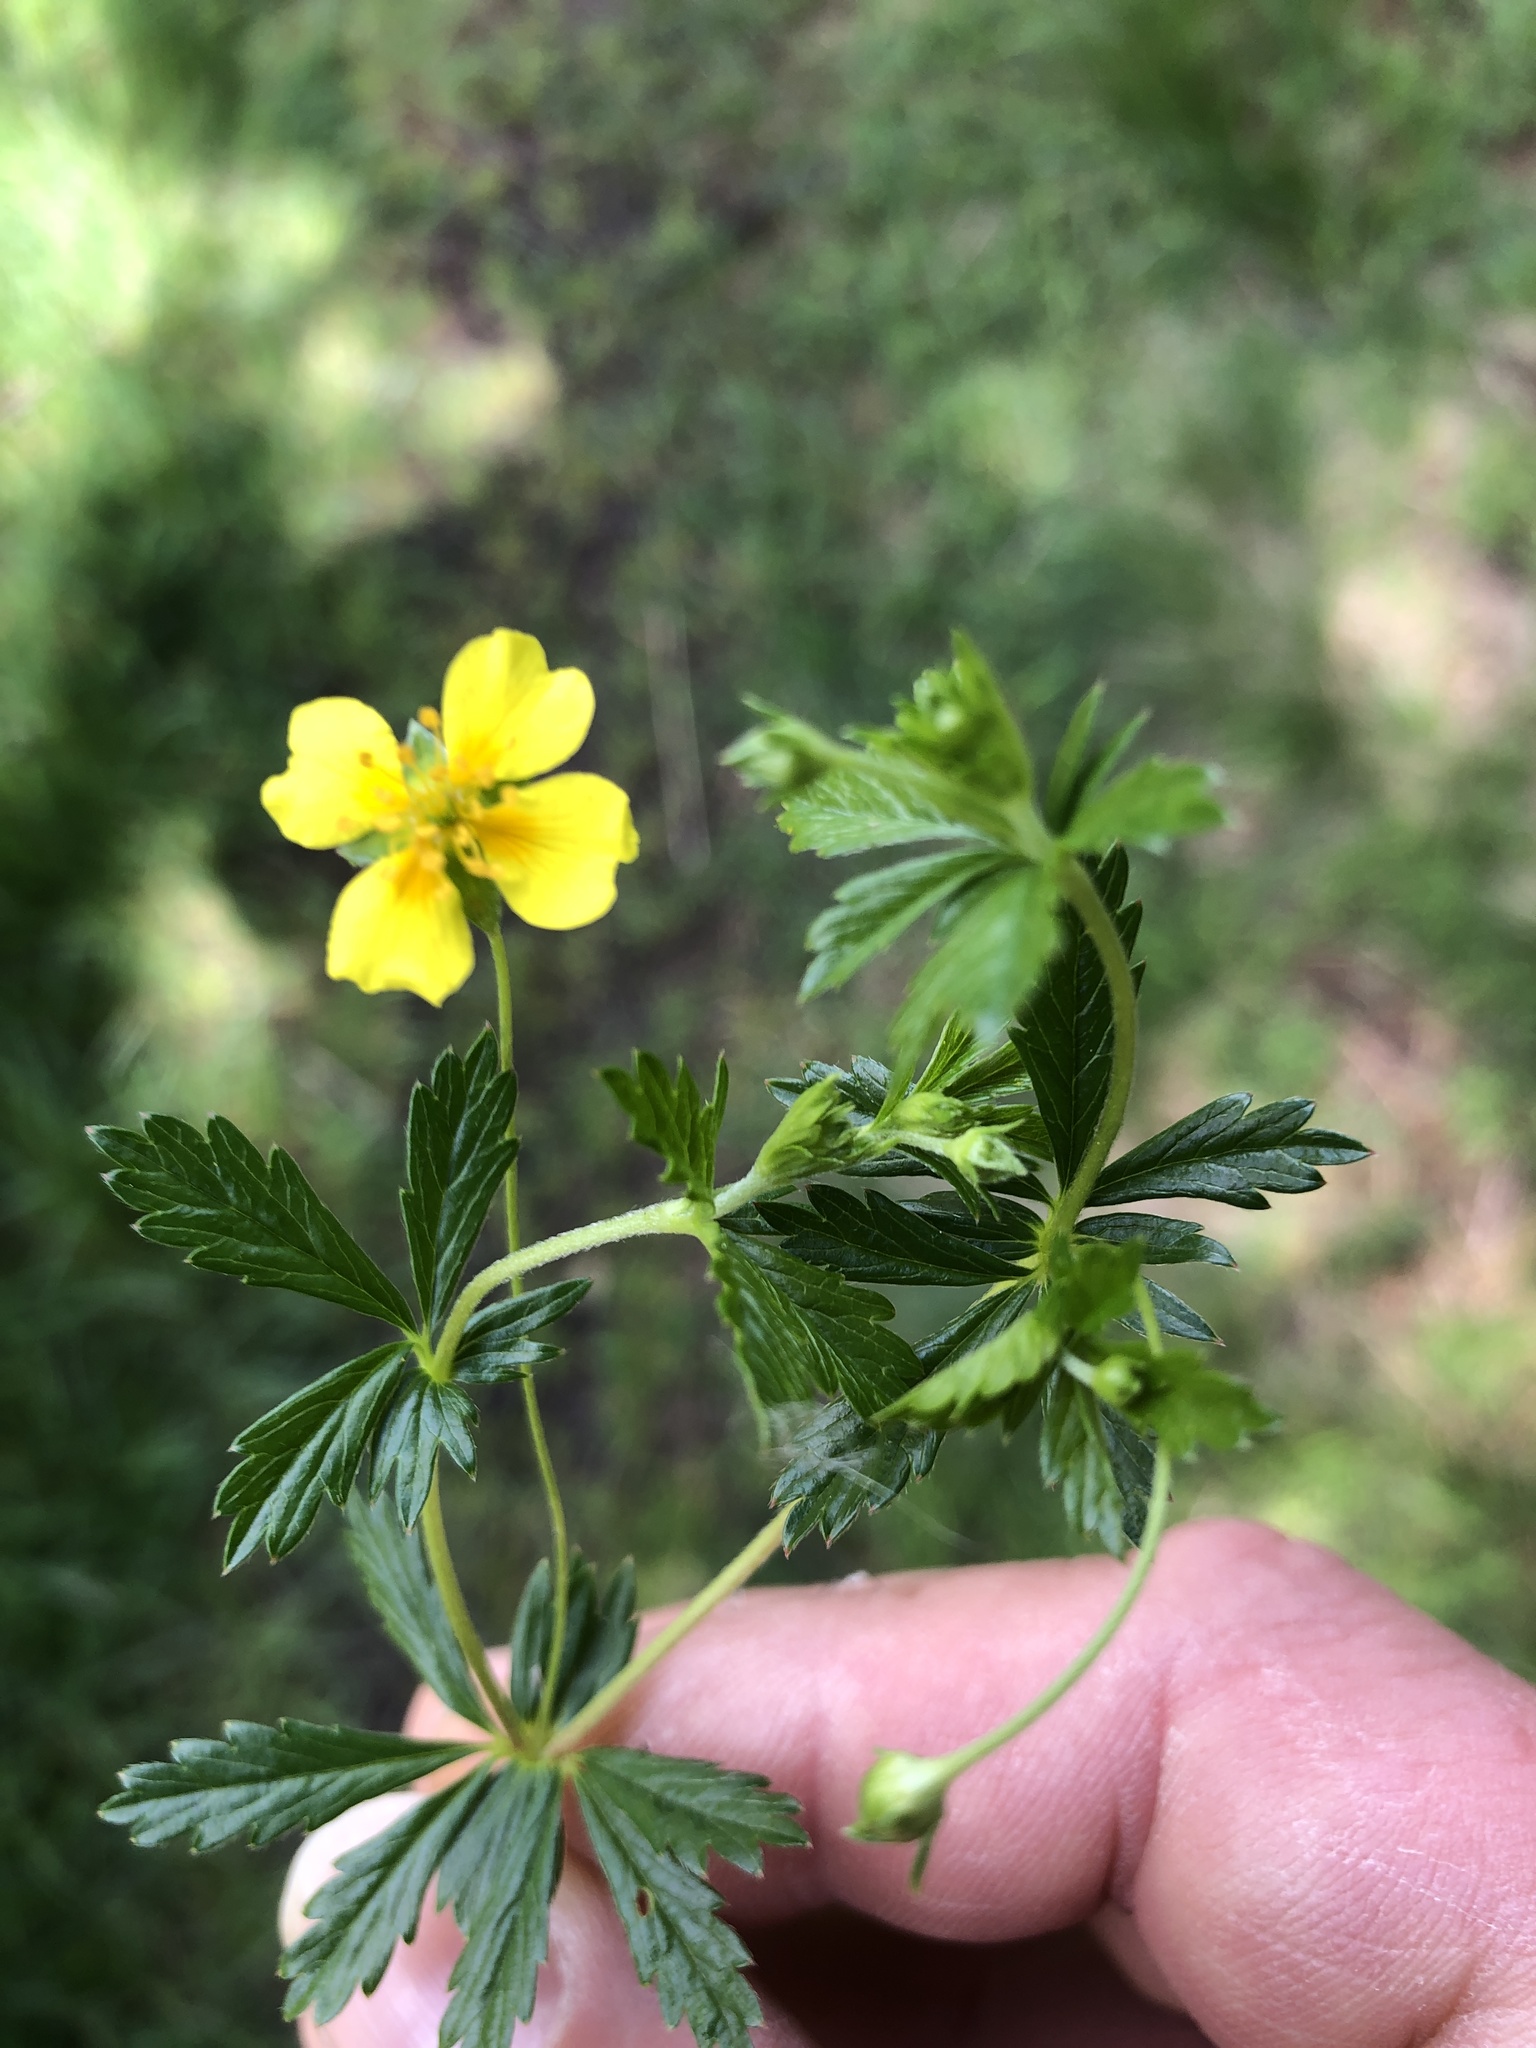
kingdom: Plantae
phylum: Tracheophyta
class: Magnoliopsida
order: Rosales
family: Rosaceae
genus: Potentilla
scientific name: Potentilla erecta
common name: Tormentil
